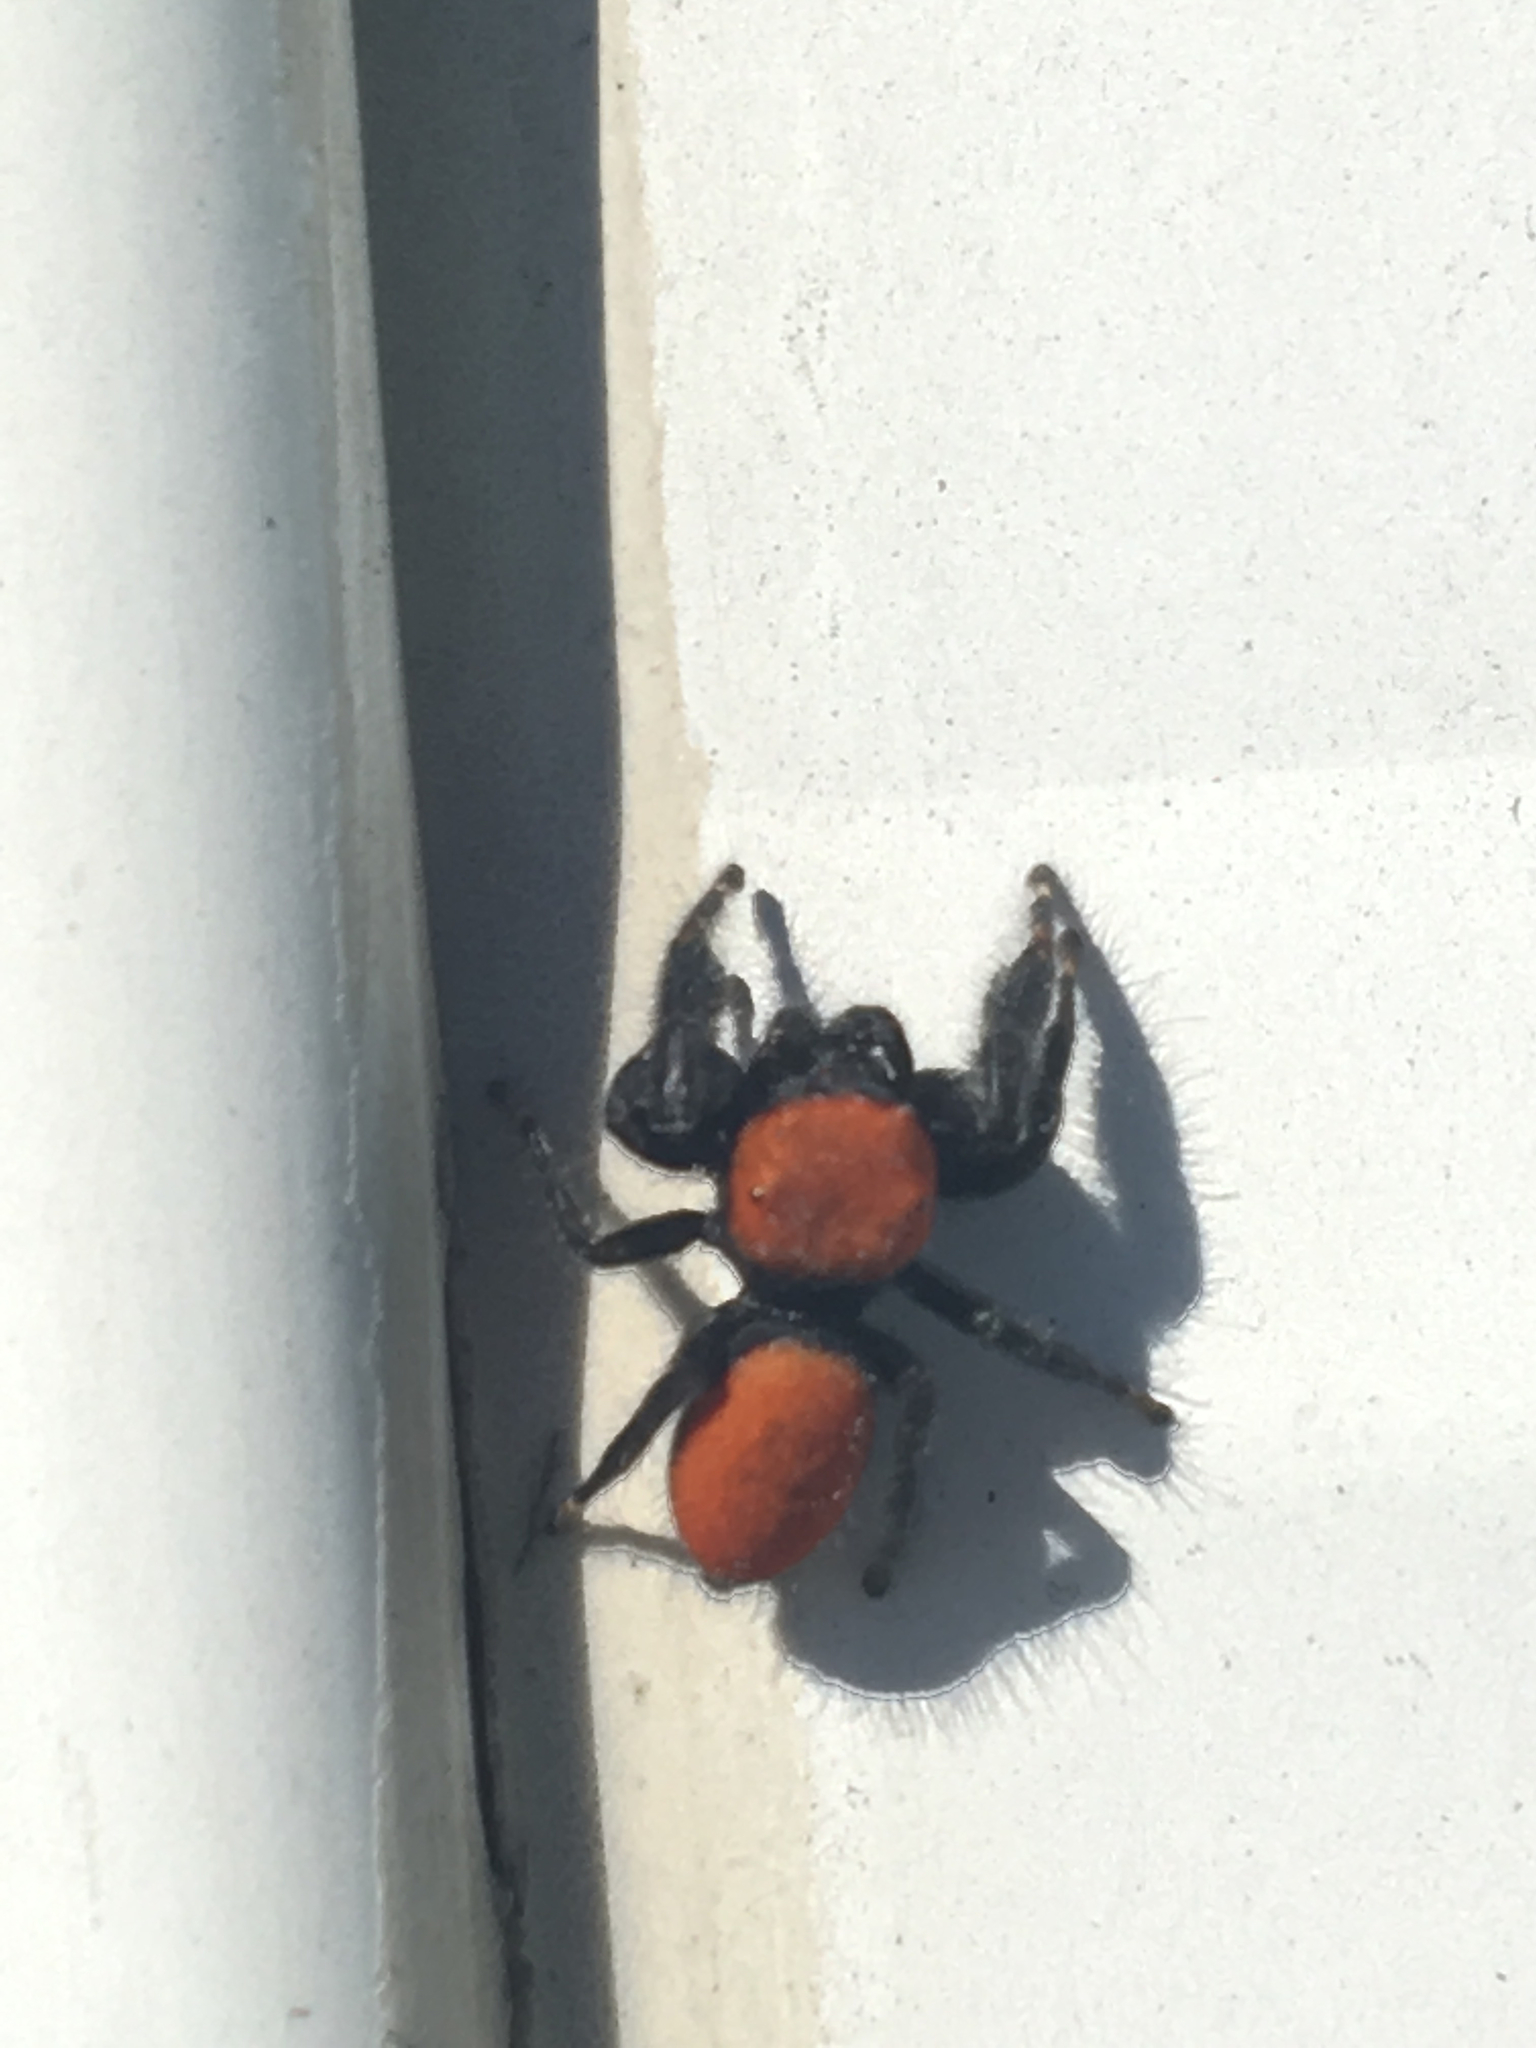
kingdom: Animalia
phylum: Arthropoda
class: Arachnida
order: Araneae
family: Salticidae
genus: Phidippus
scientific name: Phidippus cardinalis
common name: Cardinal jumper
